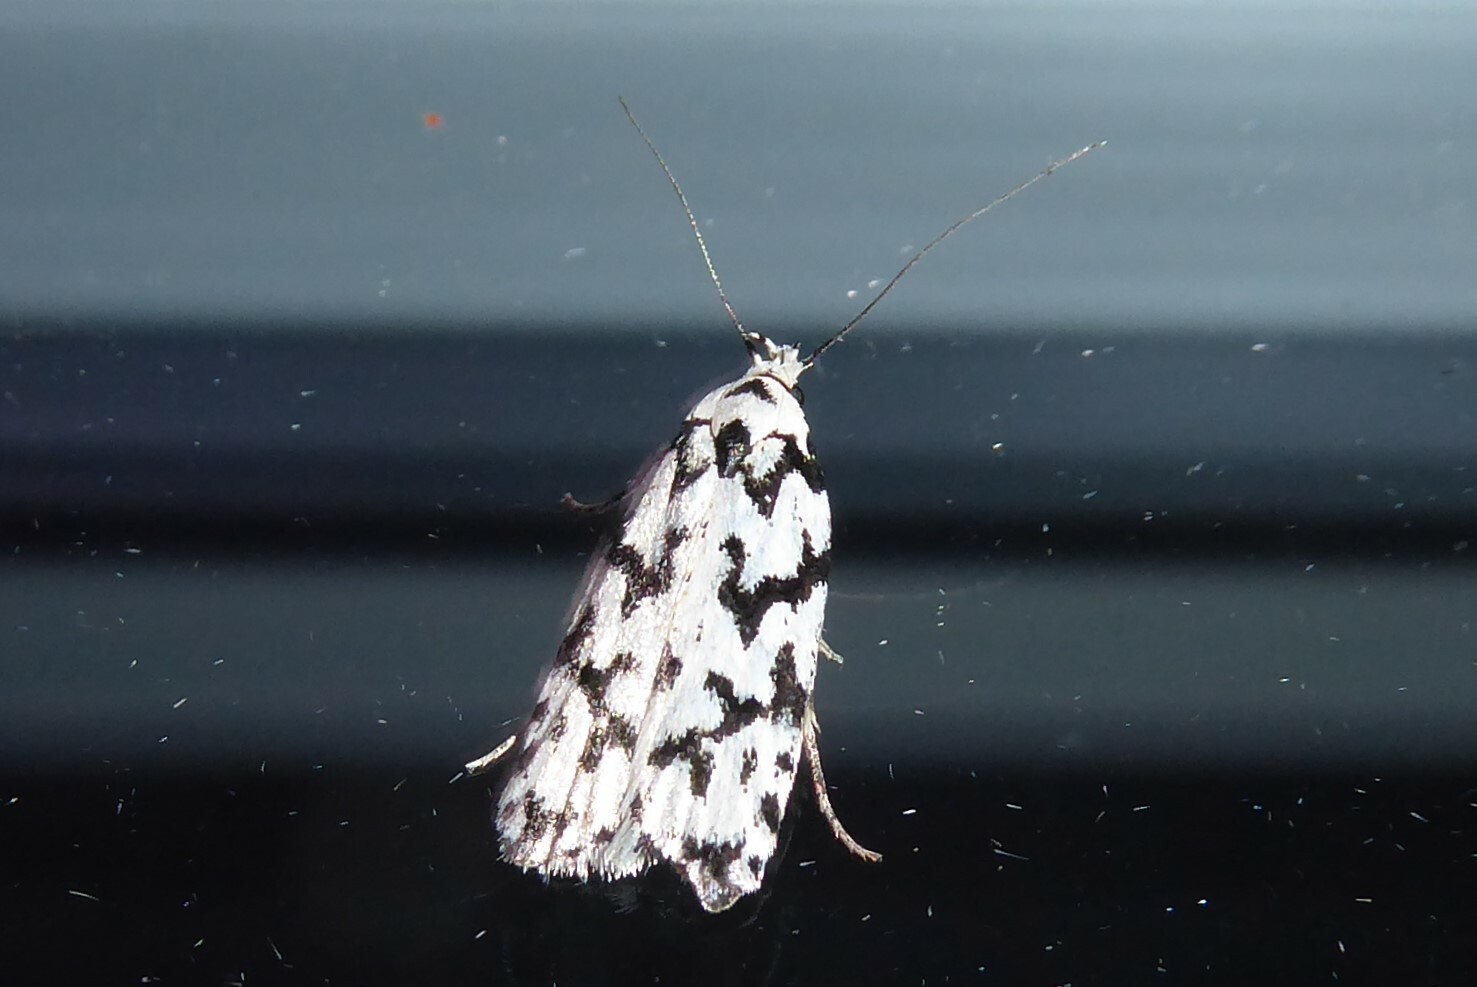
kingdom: Animalia
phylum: Arthropoda
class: Insecta
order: Lepidoptera
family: Oecophoridae
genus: Izatha
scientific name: Izatha katadiktya
